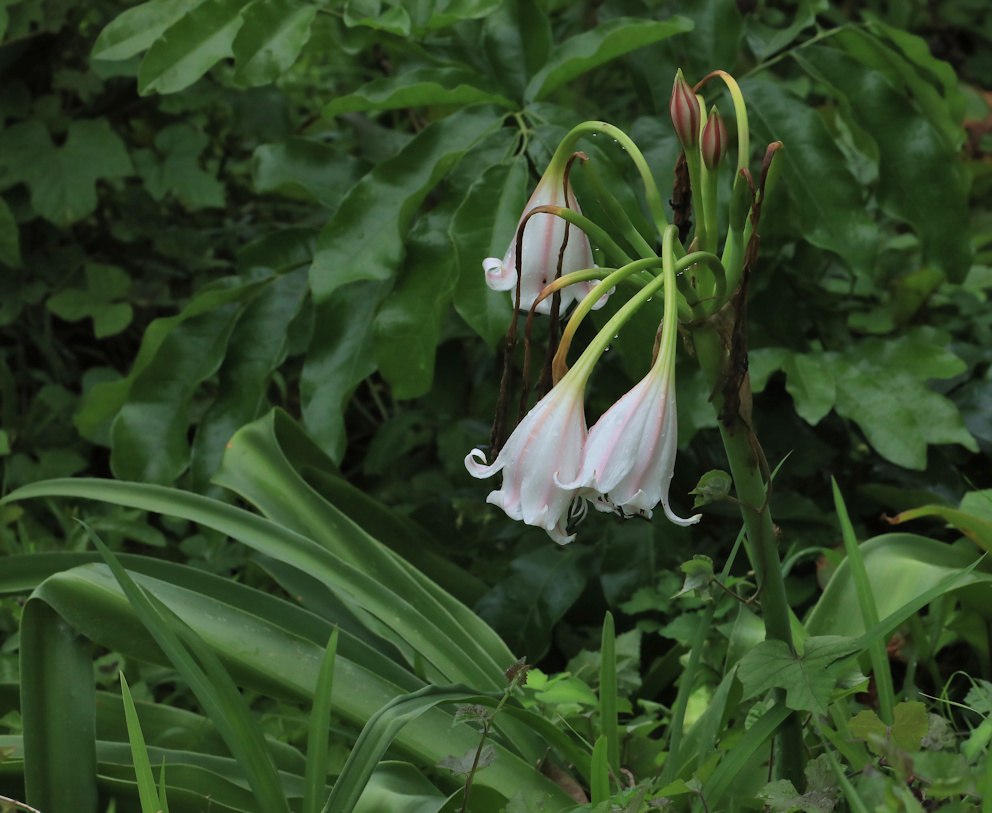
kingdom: Plantae
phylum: Tracheophyta
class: Liliopsida
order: Asparagales
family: Amaryllidaceae
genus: Crinum
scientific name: Crinum macowanii
